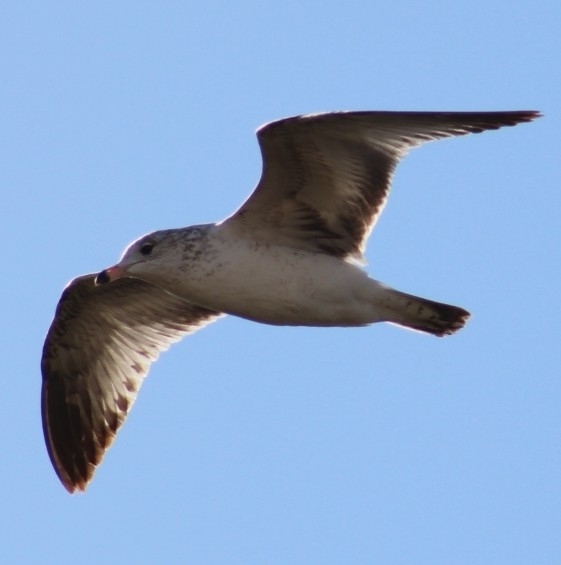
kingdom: Animalia
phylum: Chordata
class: Aves
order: Charadriiformes
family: Laridae
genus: Larus
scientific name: Larus delawarensis
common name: Ring-billed gull
